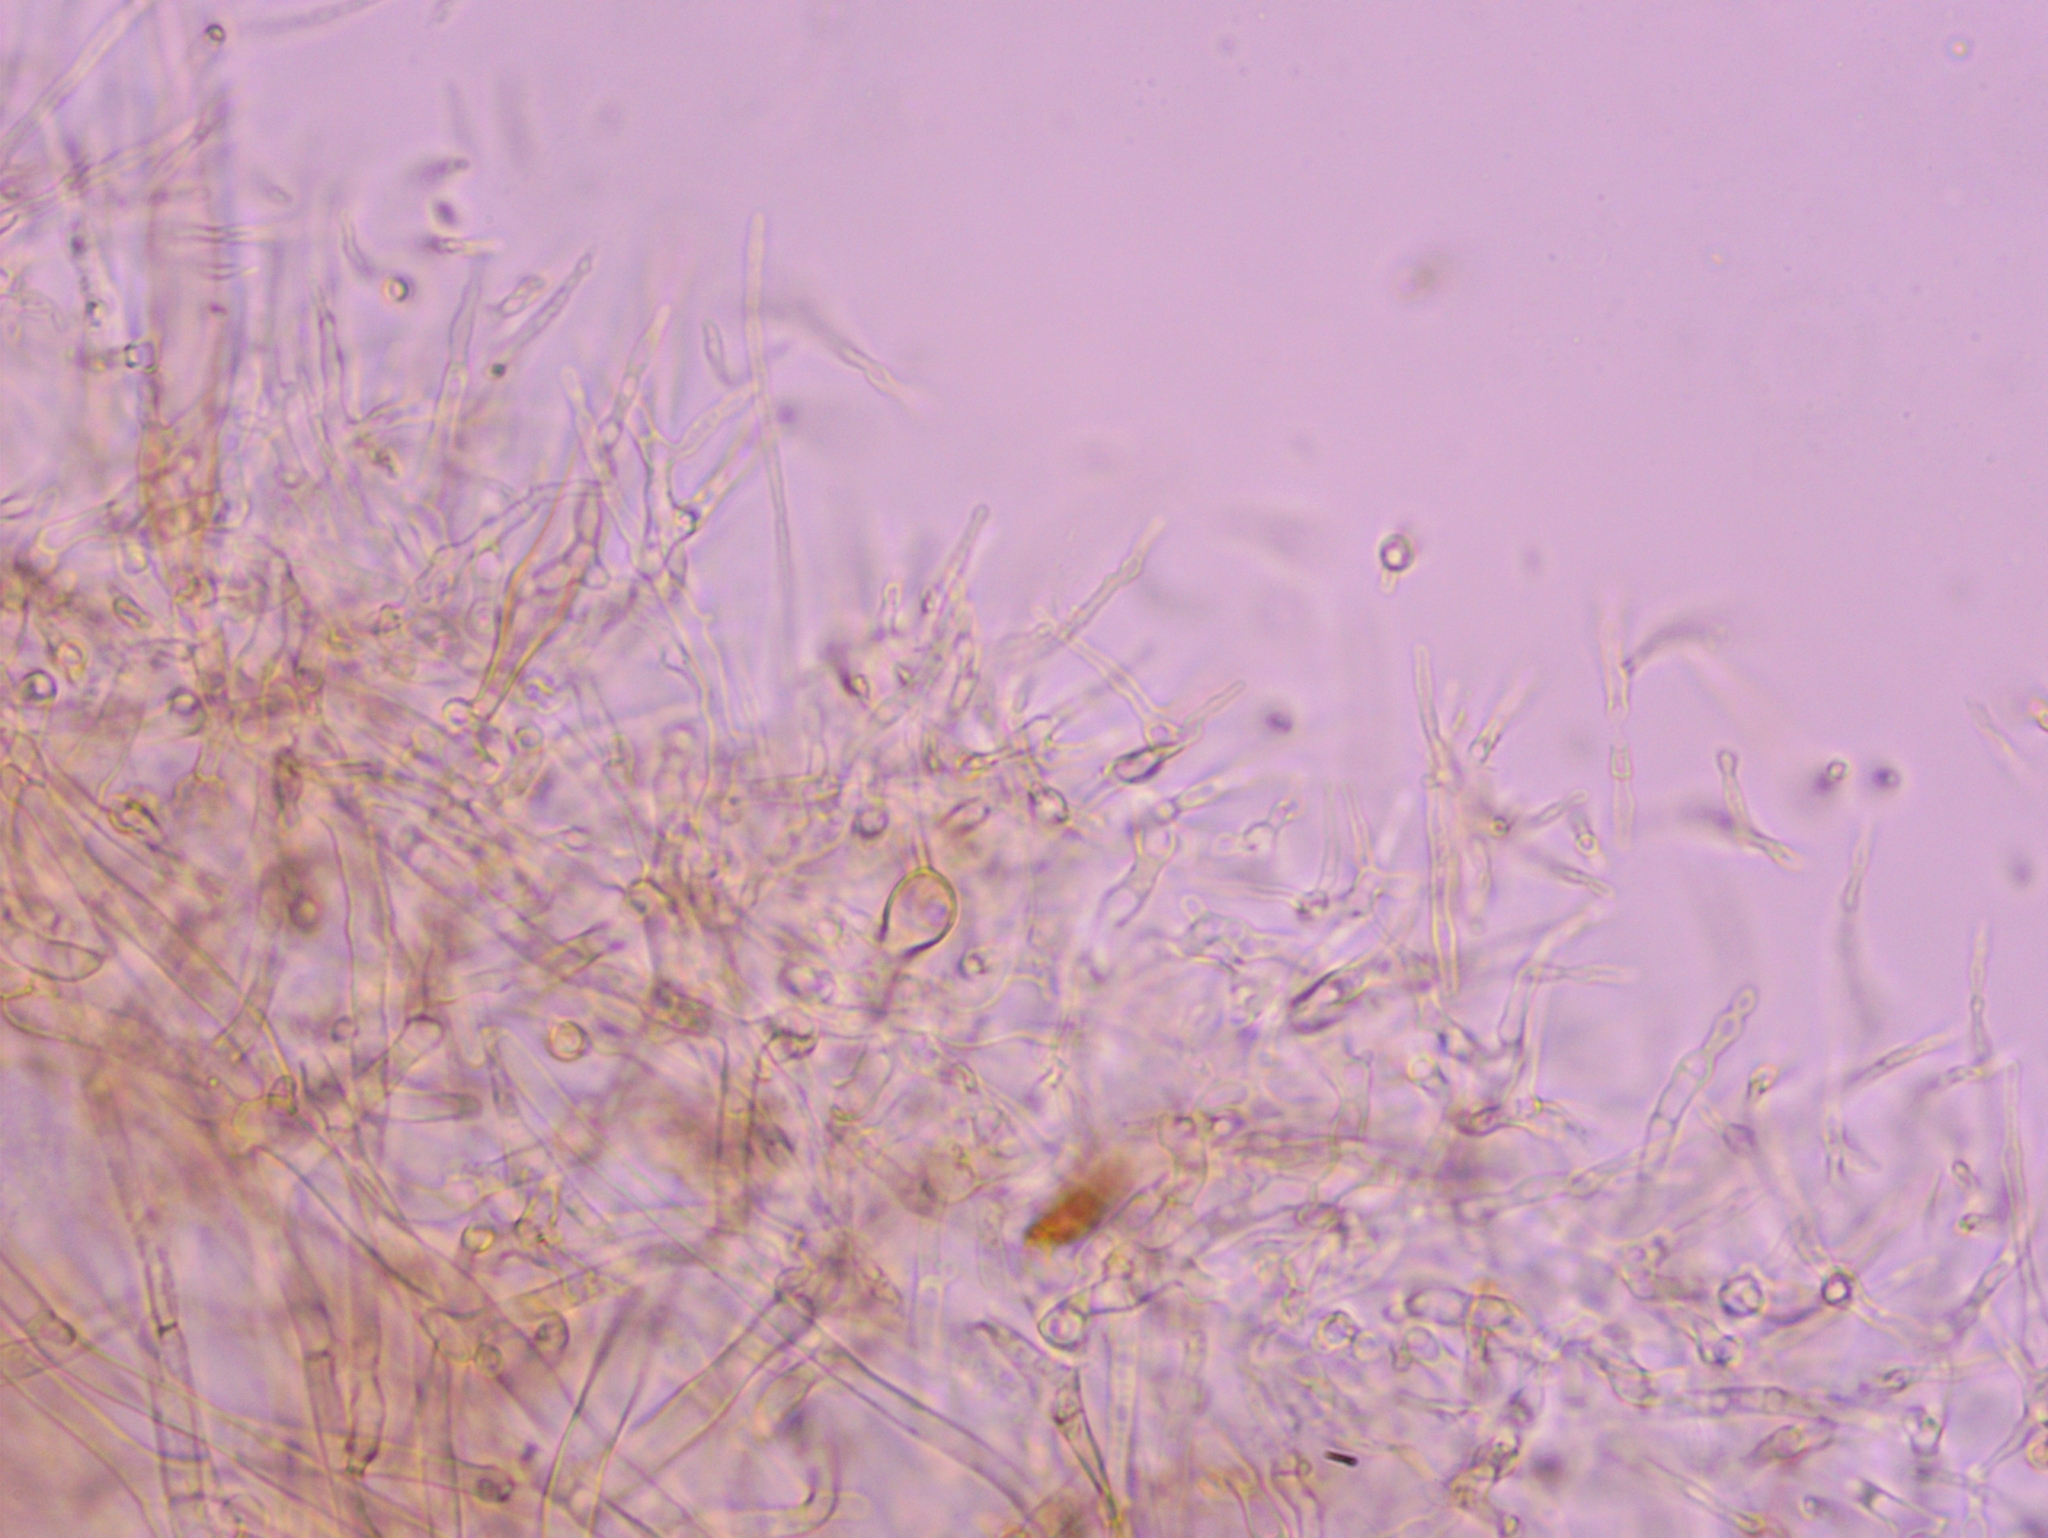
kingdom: Fungi
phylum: Basidiomycota
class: Agaricomycetes
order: Agaricales
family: Physalacriaceae
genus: Flammulina
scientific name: Flammulina velutipes
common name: Velvet shank
